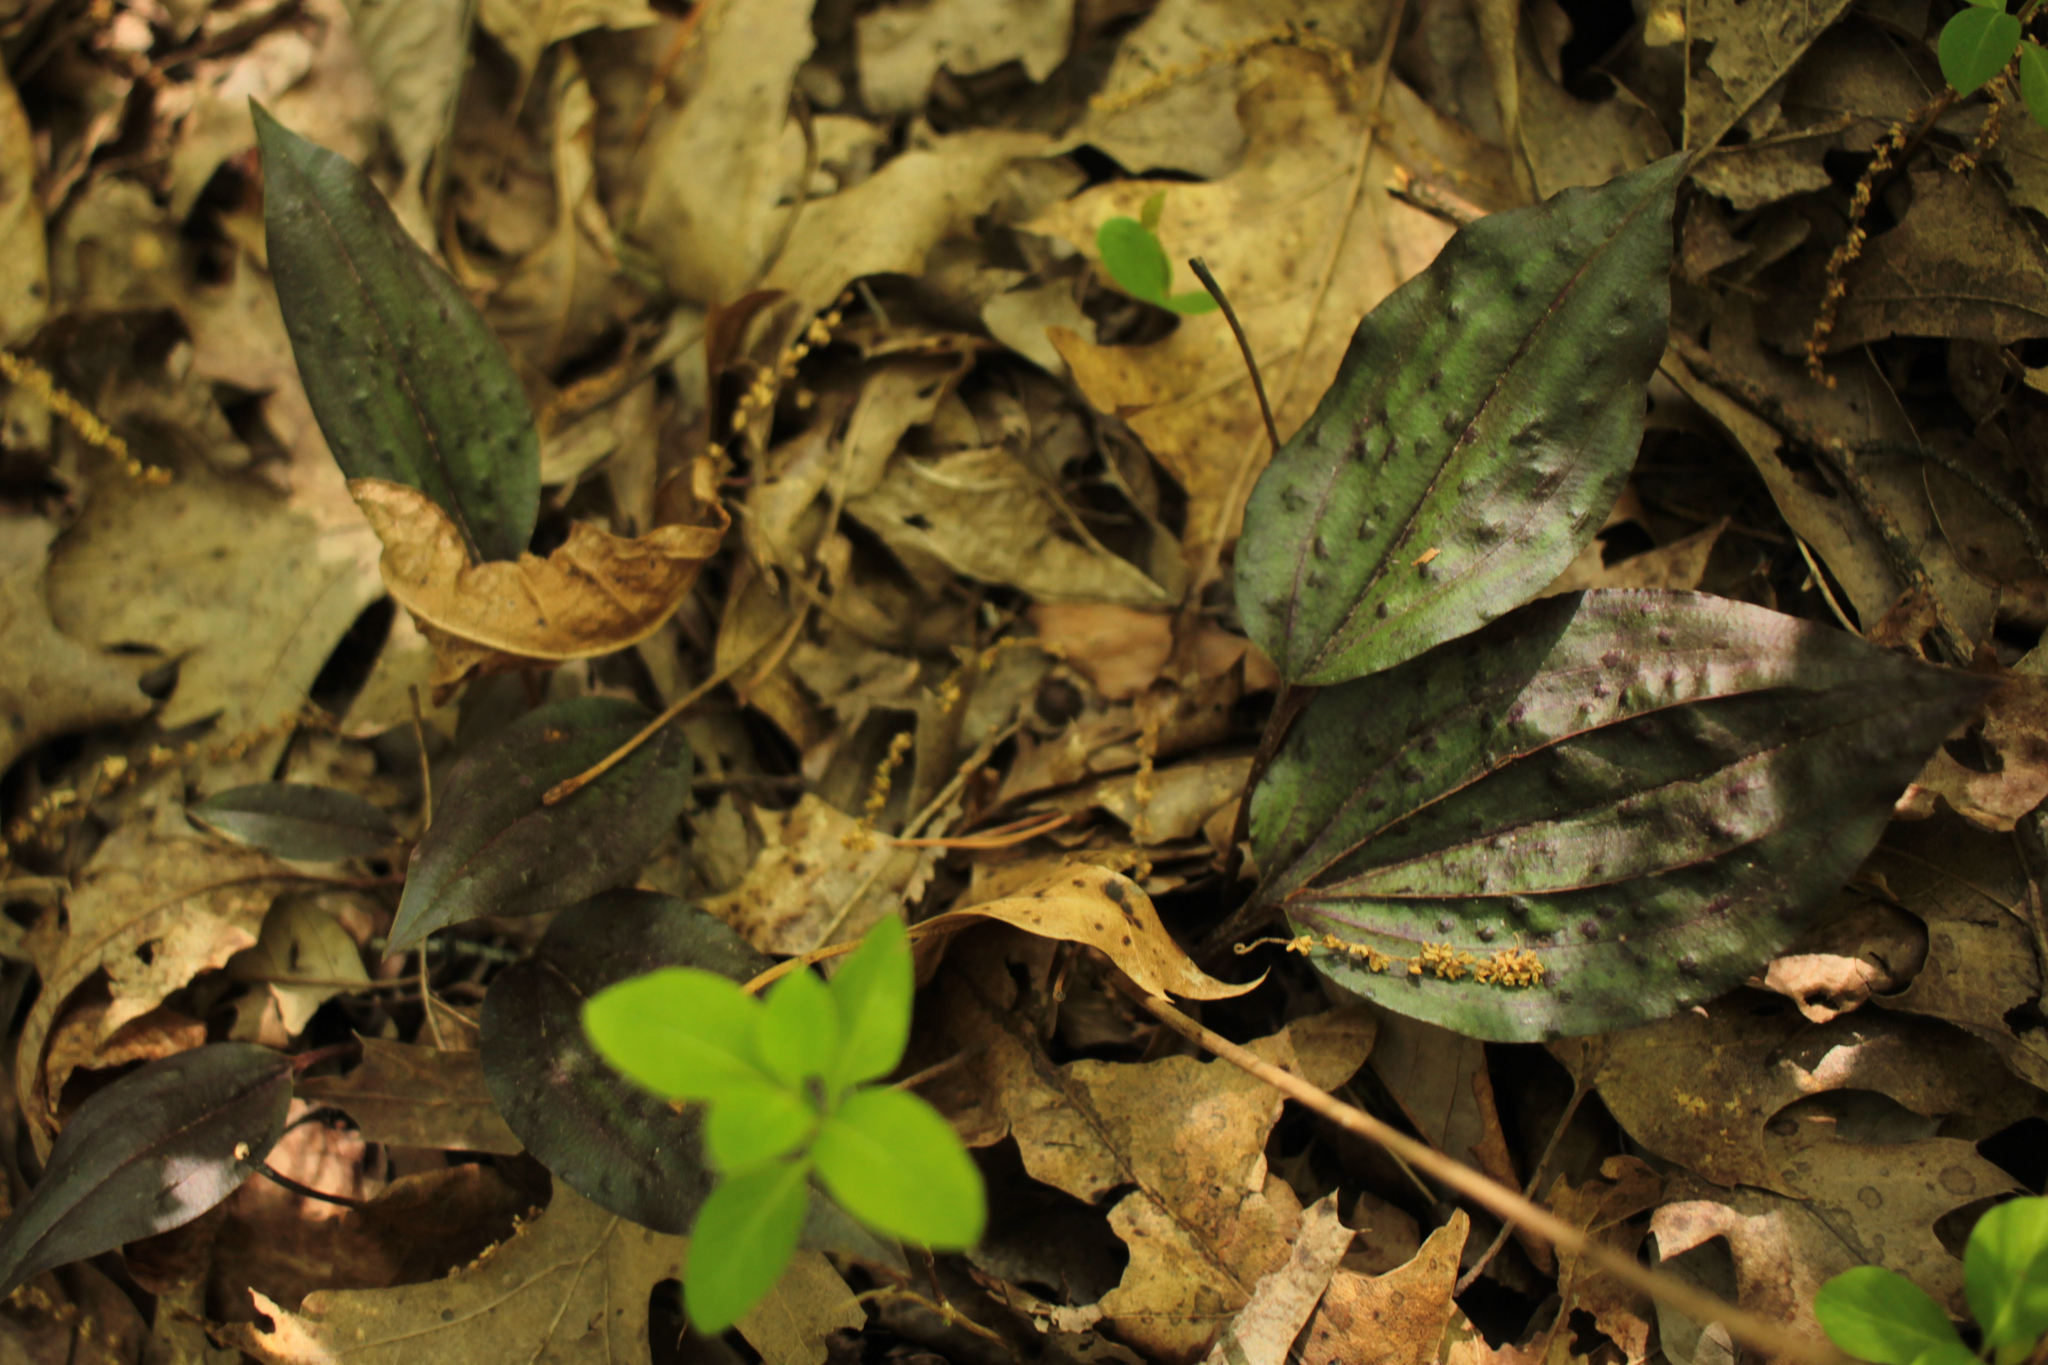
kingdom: Plantae
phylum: Tracheophyta
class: Liliopsida
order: Asparagales
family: Orchidaceae
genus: Tipularia
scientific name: Tipularia discolor
